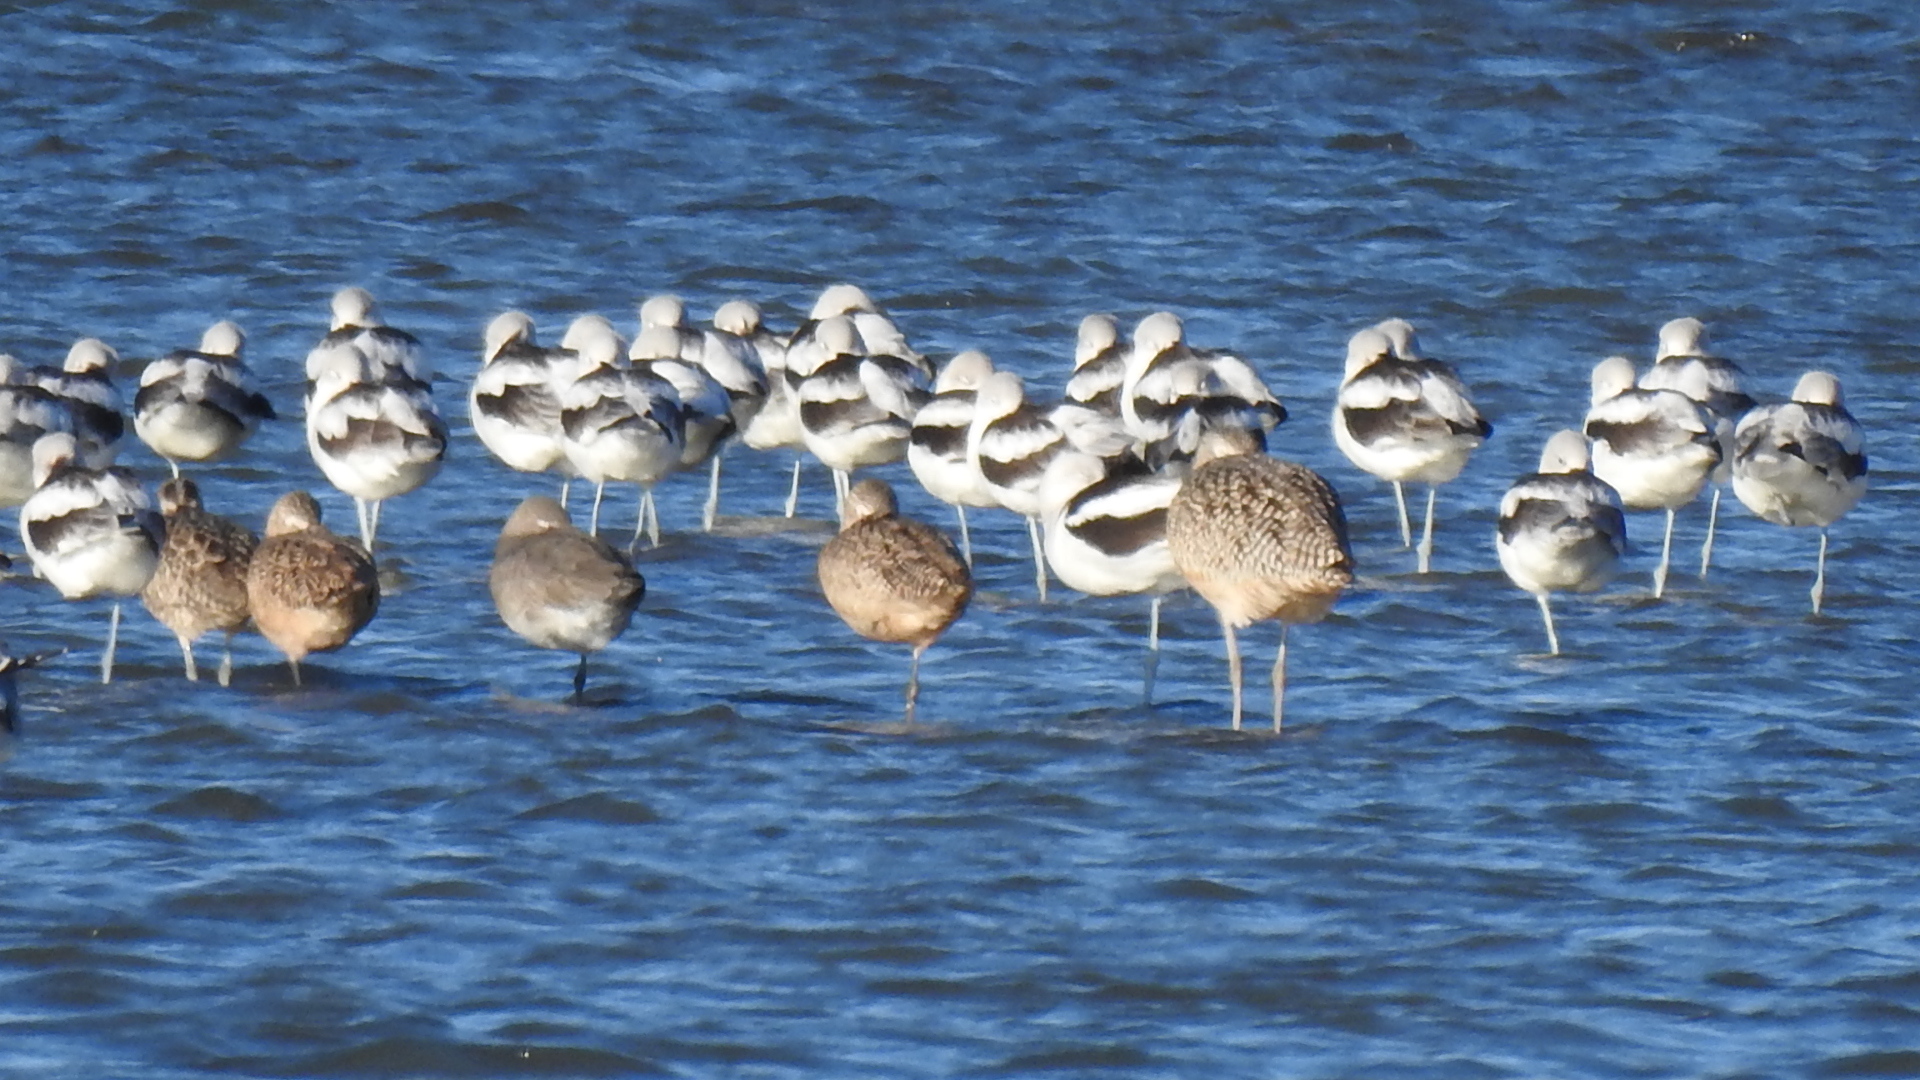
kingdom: Animalia
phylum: Chordata
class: Aves
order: Charadriiformes
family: Scolopacidae
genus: Limosa
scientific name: Limosa fedoa
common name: Marbled godwit
